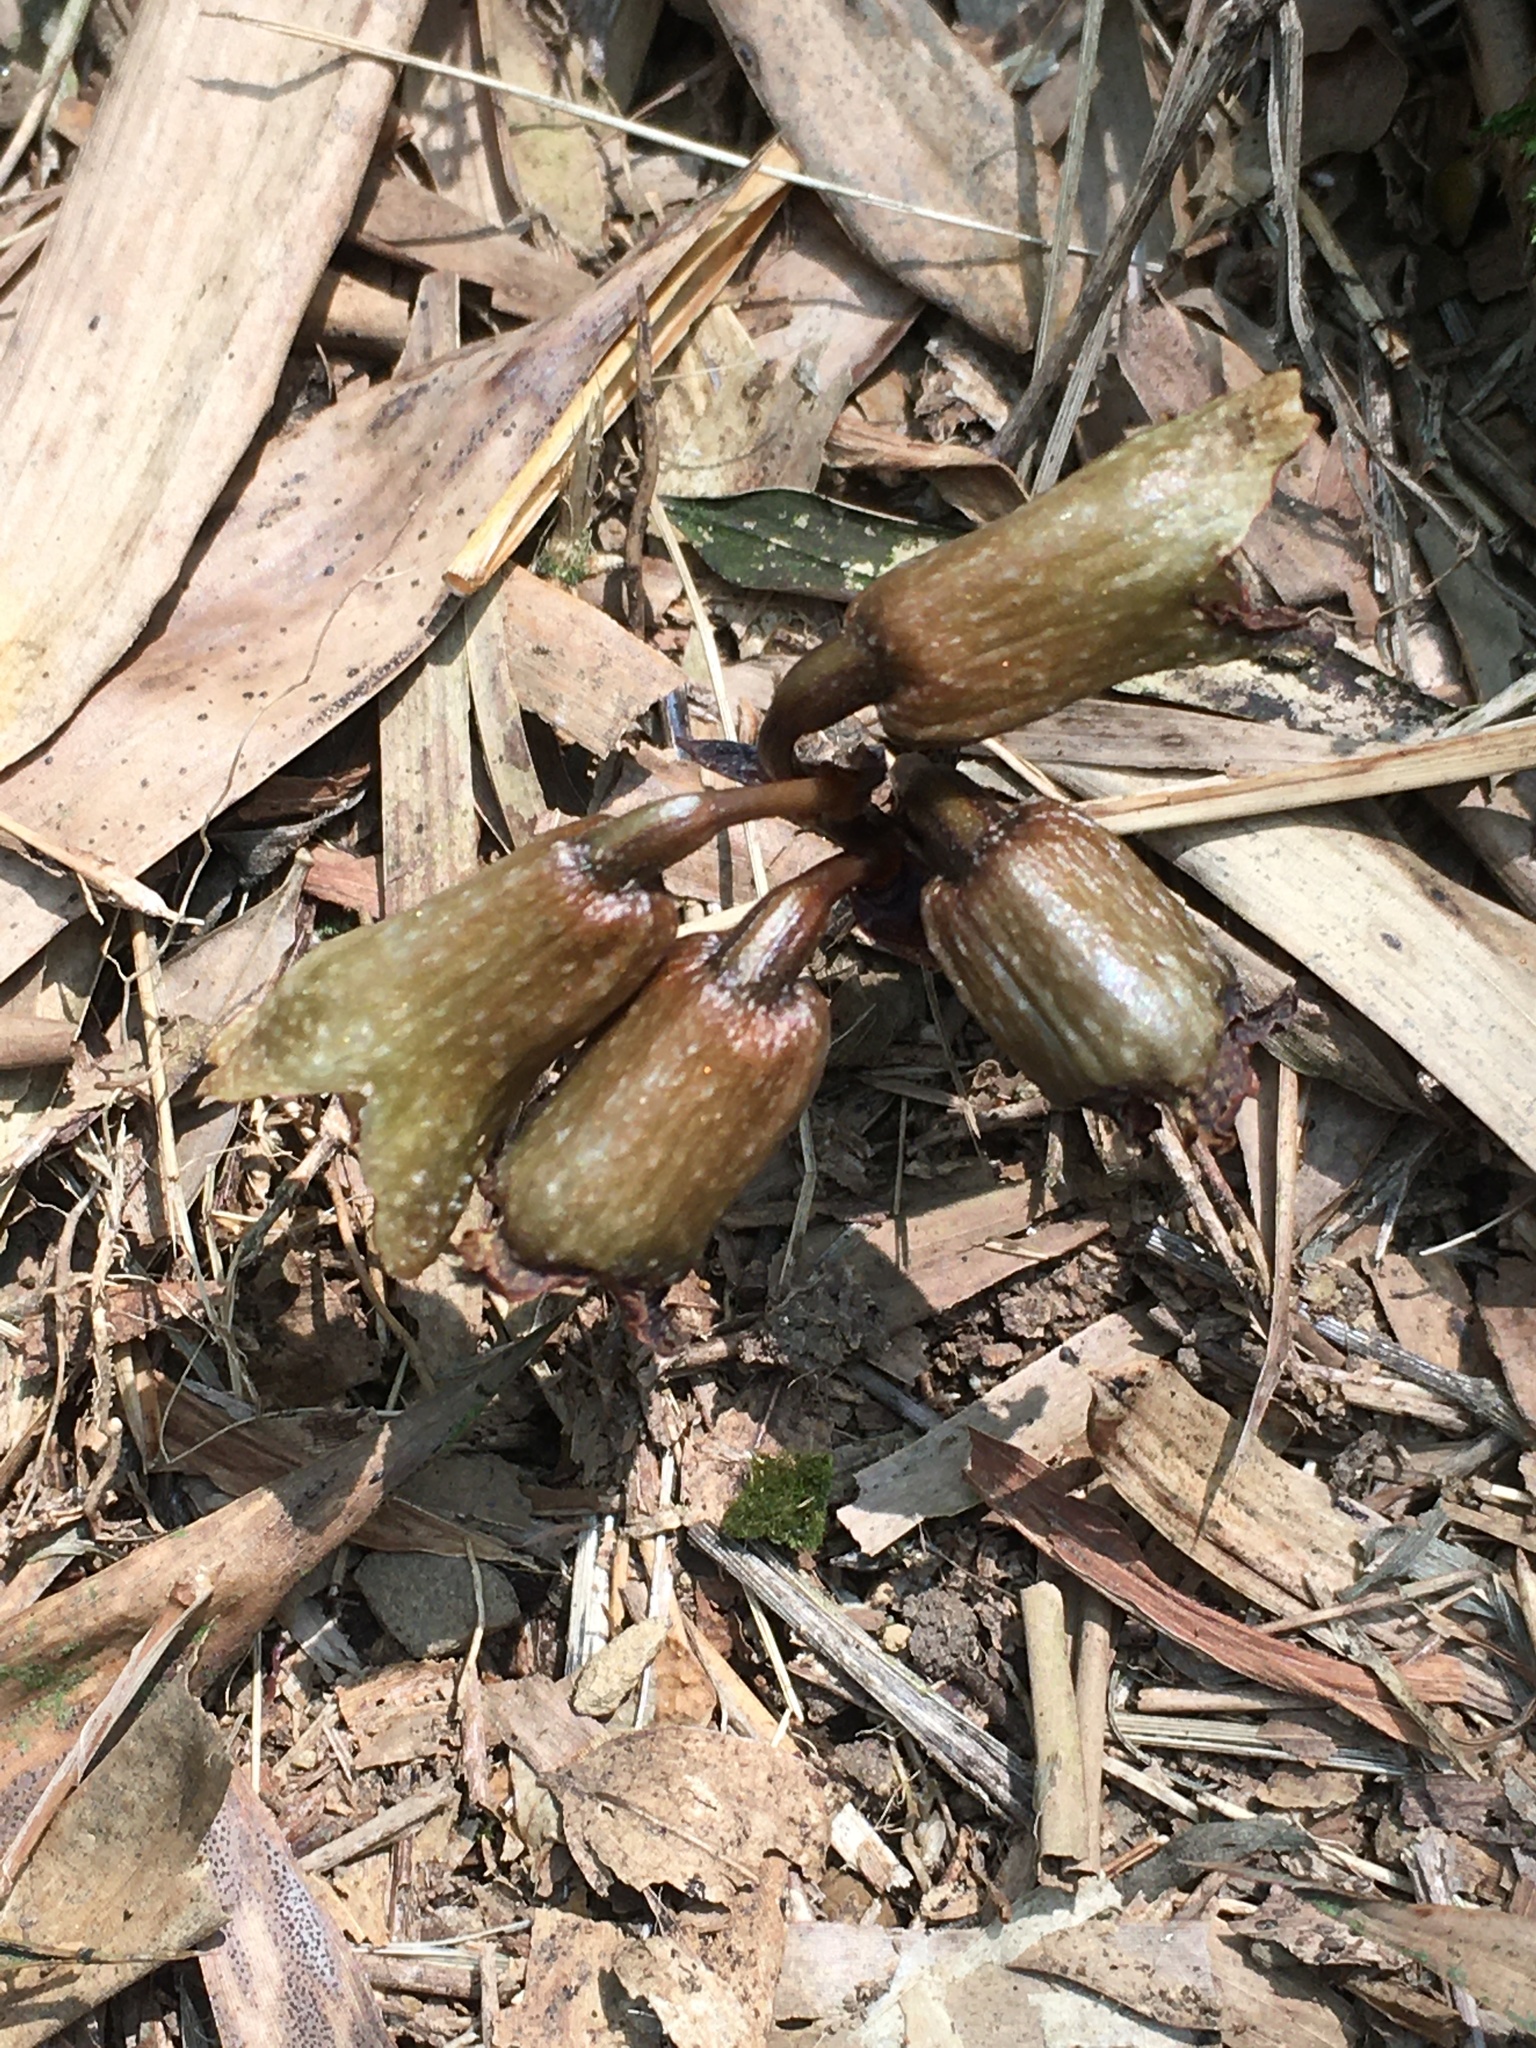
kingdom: Plantae
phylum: Tracheophyta
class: Liliopsida
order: Asparagales
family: Orchidaceae
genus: Gastrodia
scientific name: Gastrodia fontinalis
